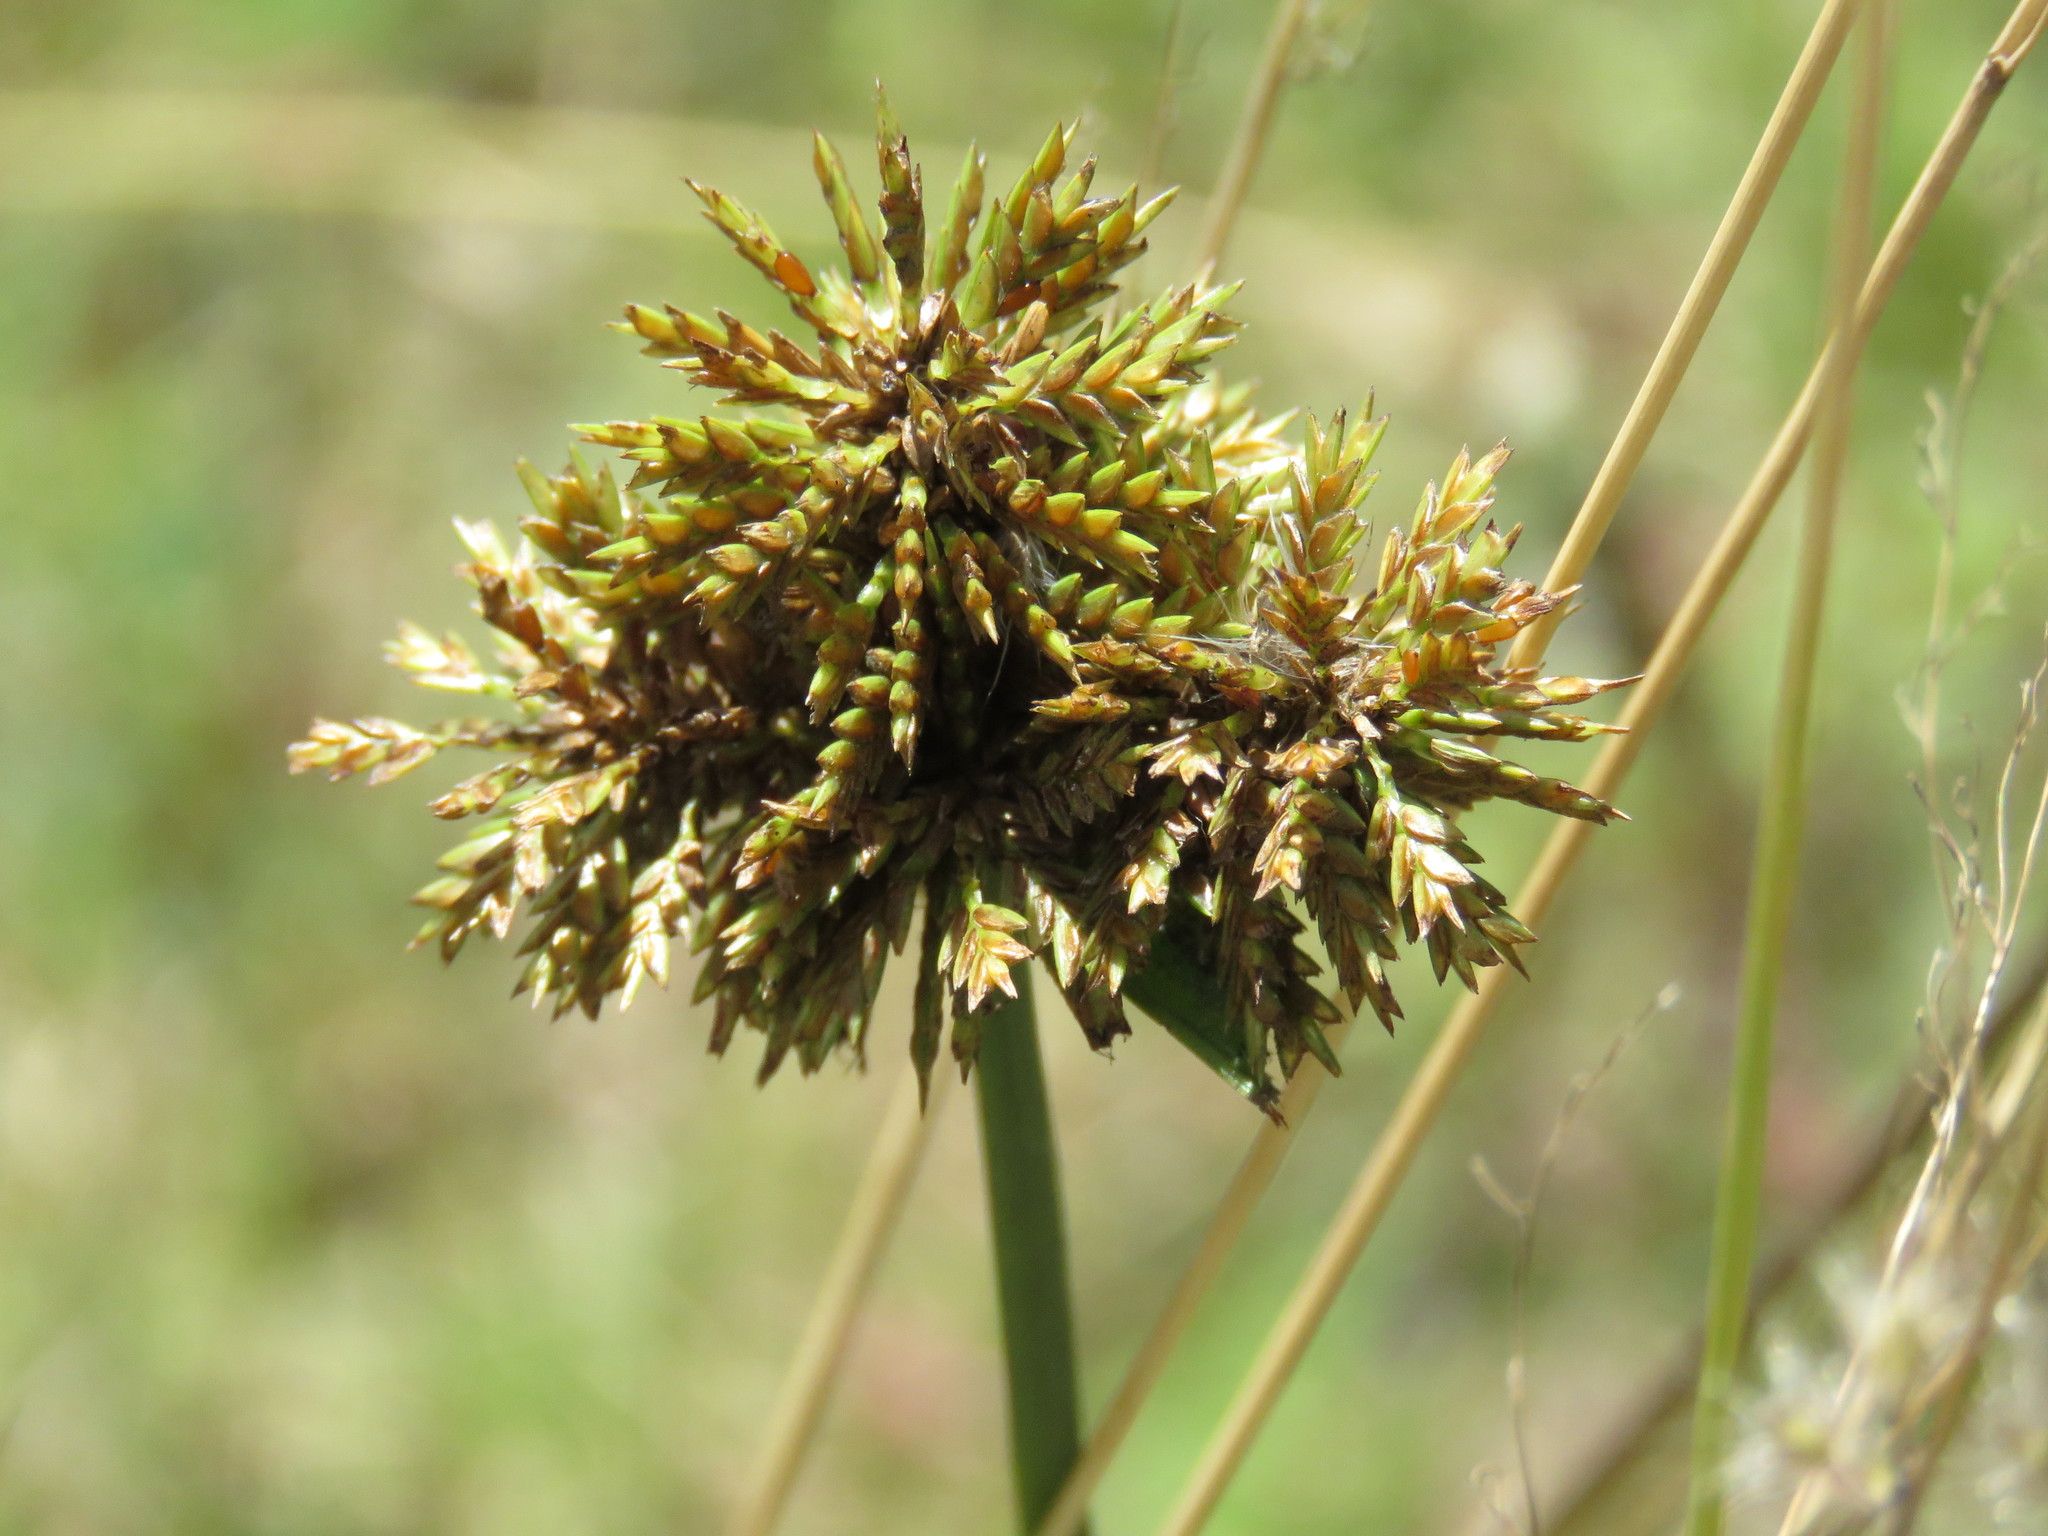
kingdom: Plantae
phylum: Tracheophyta
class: Liliopsida
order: Poales
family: Cyperaceae
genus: Cyperus
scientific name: Cyperus manimae
